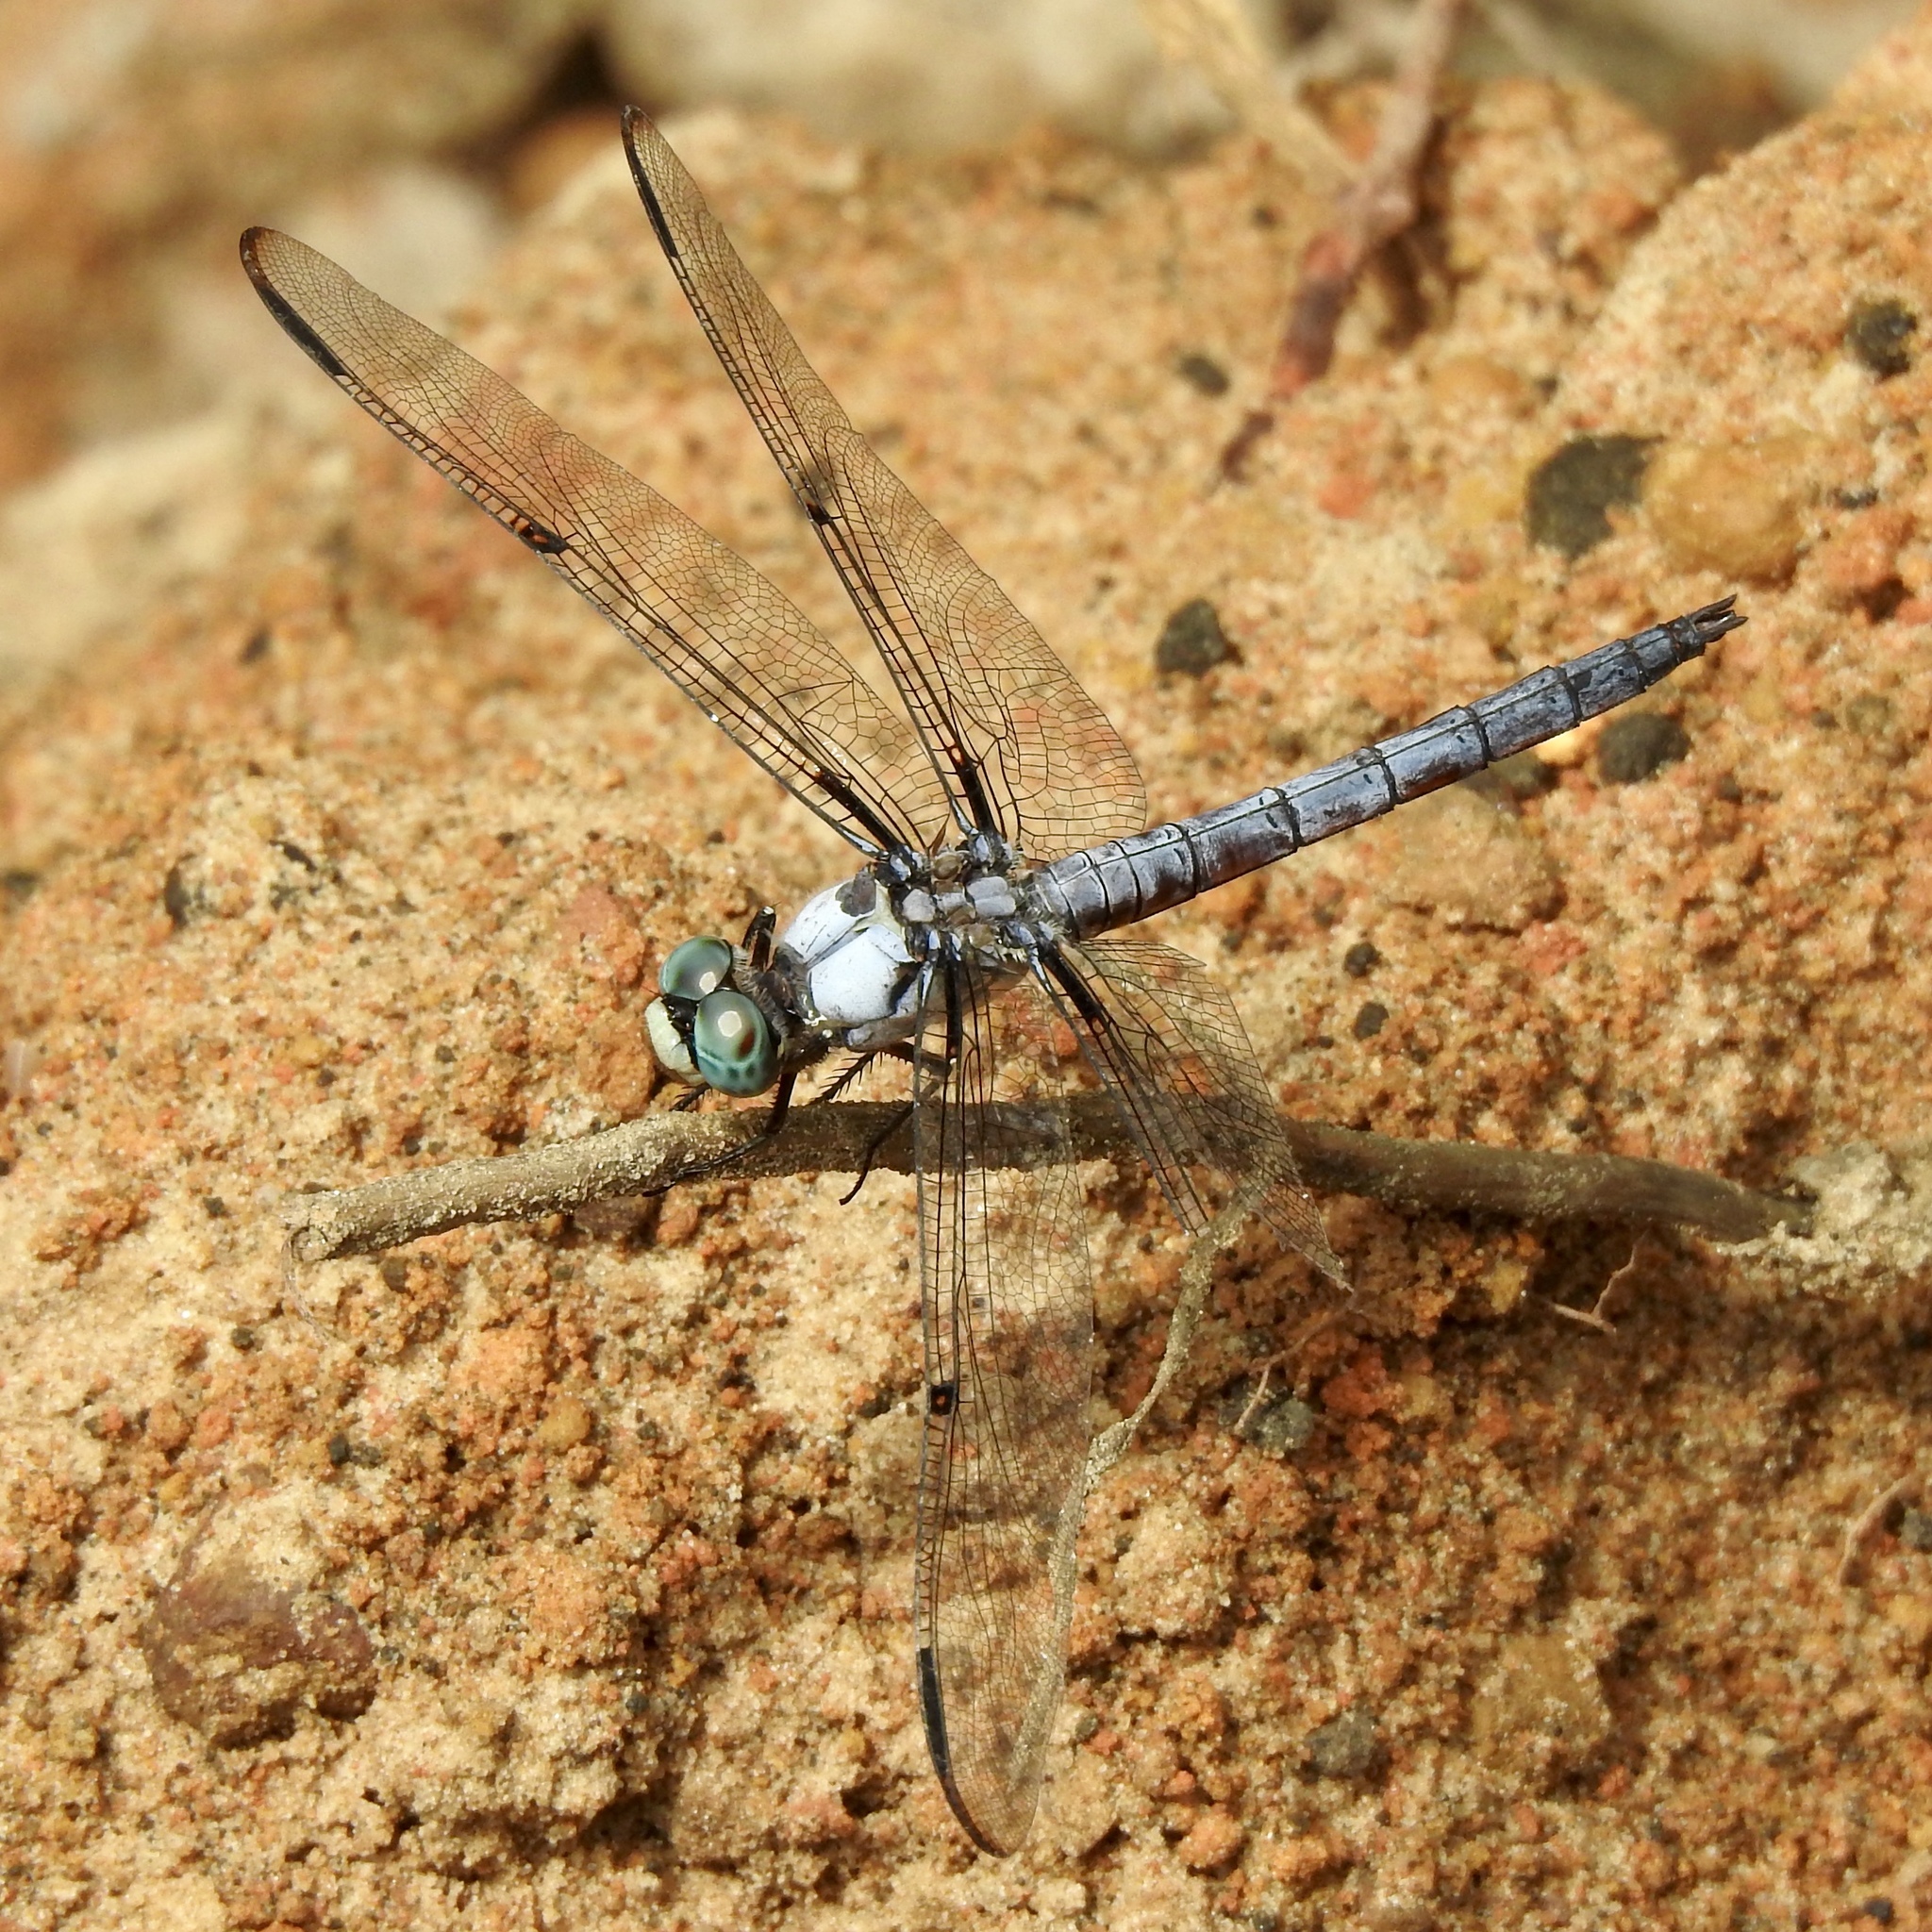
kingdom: Animalia
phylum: Arthropoda
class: Insecta
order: Odonata
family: Libellulidae
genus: Libellula
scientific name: Libellula vibrans
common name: Great blue skimmer
